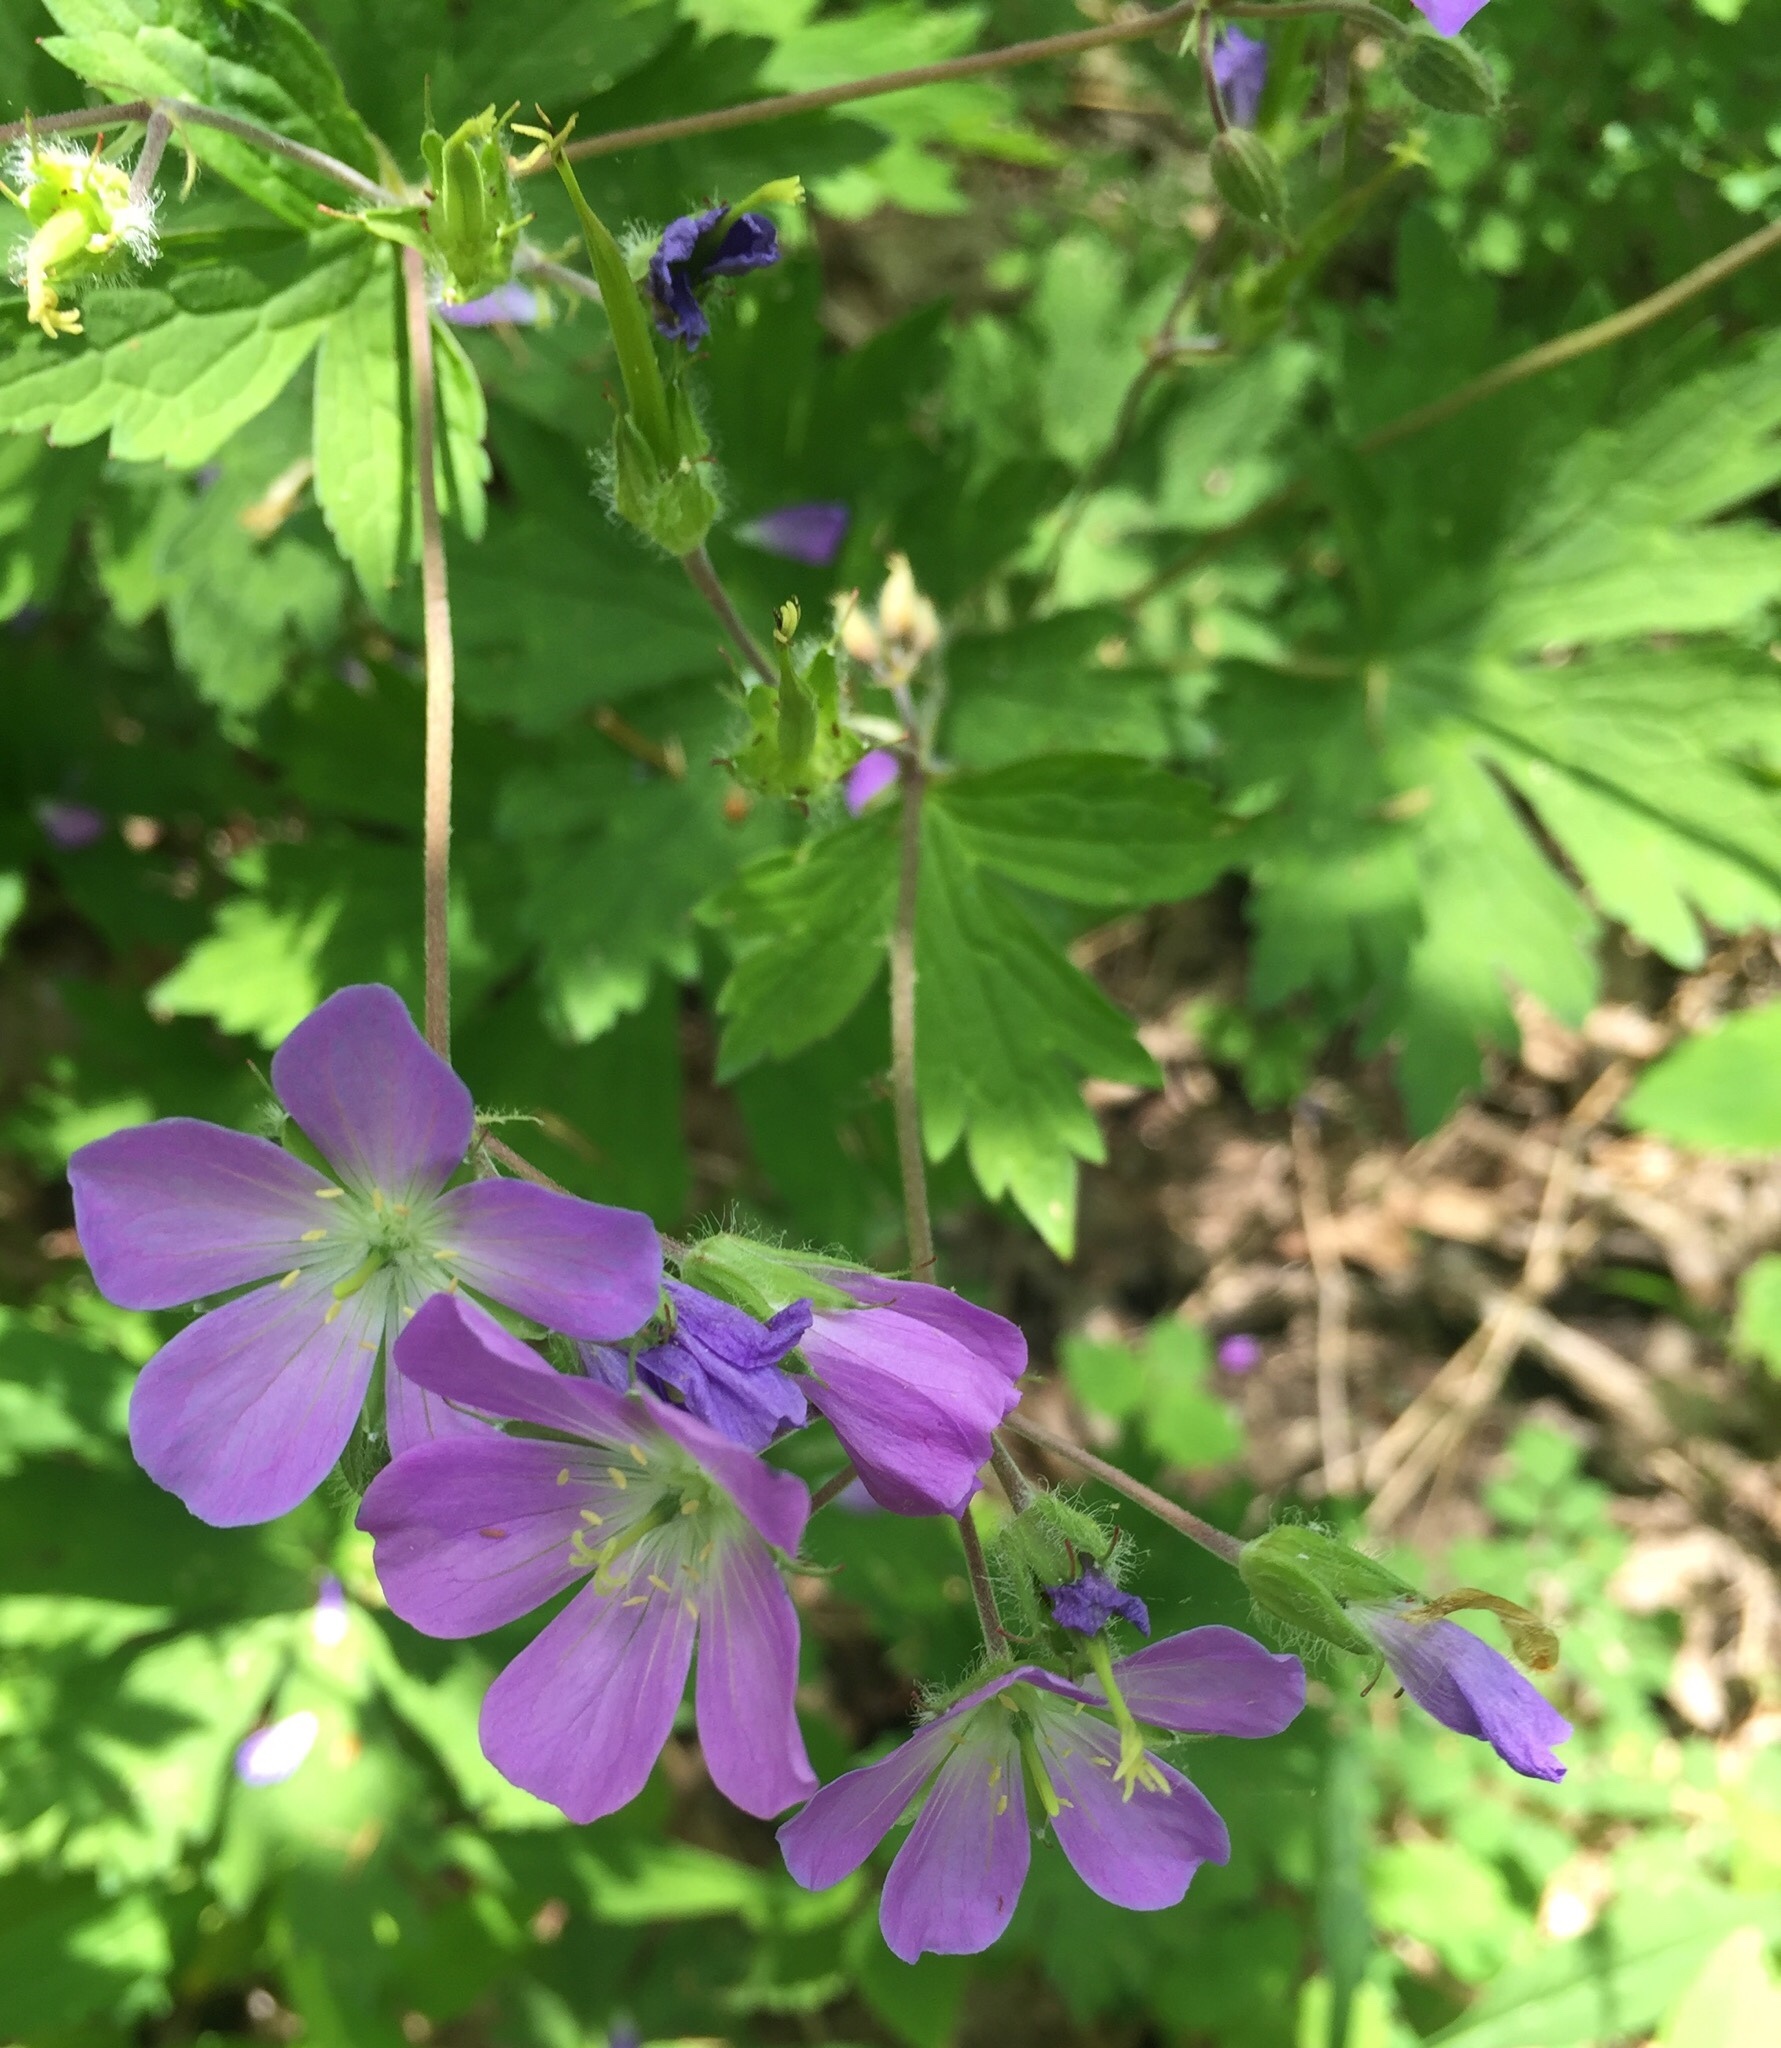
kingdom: Plantae
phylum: Tracheophyta
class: Magnoliopsida
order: Geraniales
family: Geraniaceae
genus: Geranium
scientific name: Geranium maculatum
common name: Spotted geranium
